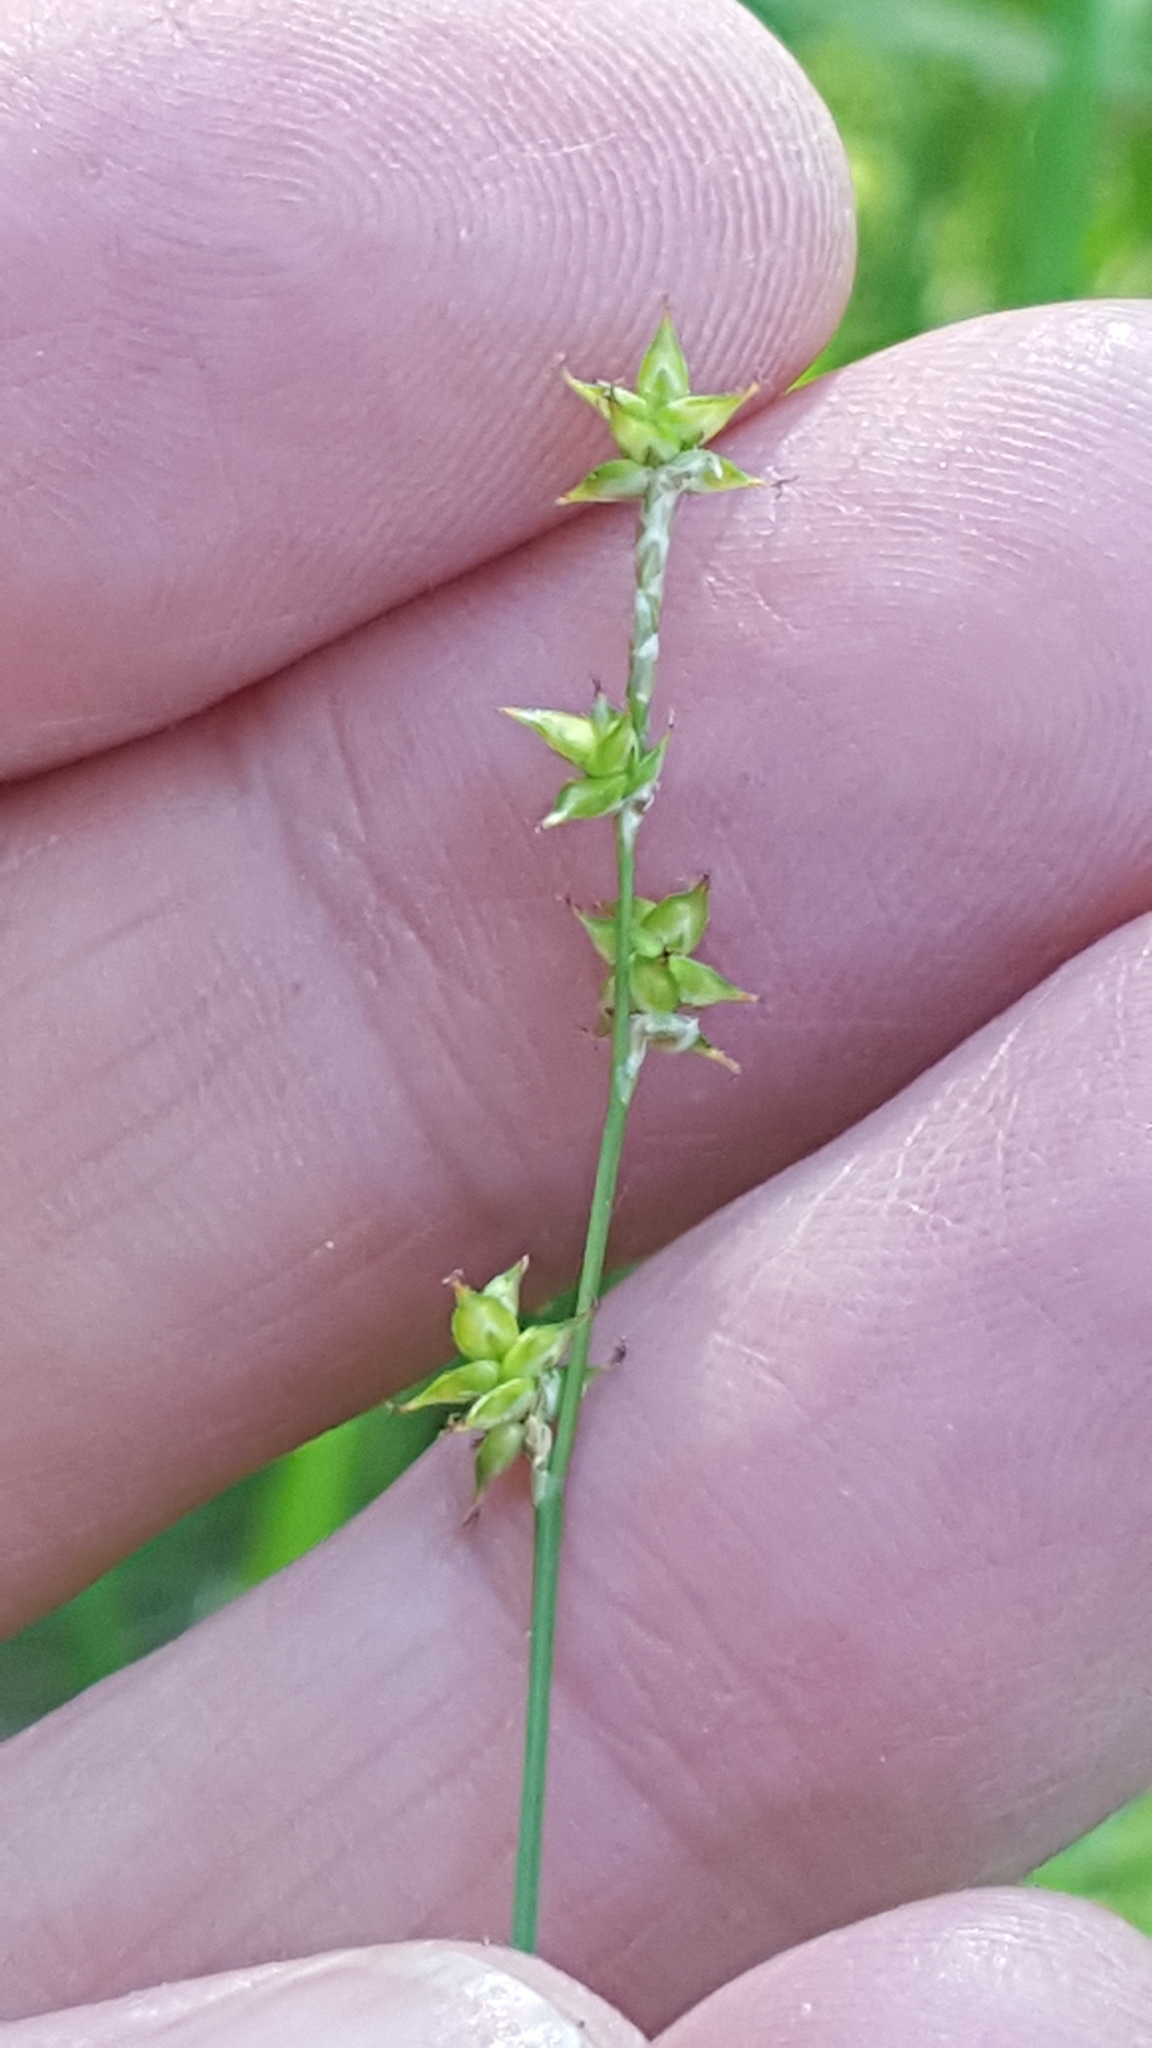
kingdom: Plantae
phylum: Tracheophyta
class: Liliopsida
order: Poales
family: Cyperaceae
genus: Carex
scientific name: Carex interior
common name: Inland sedge
